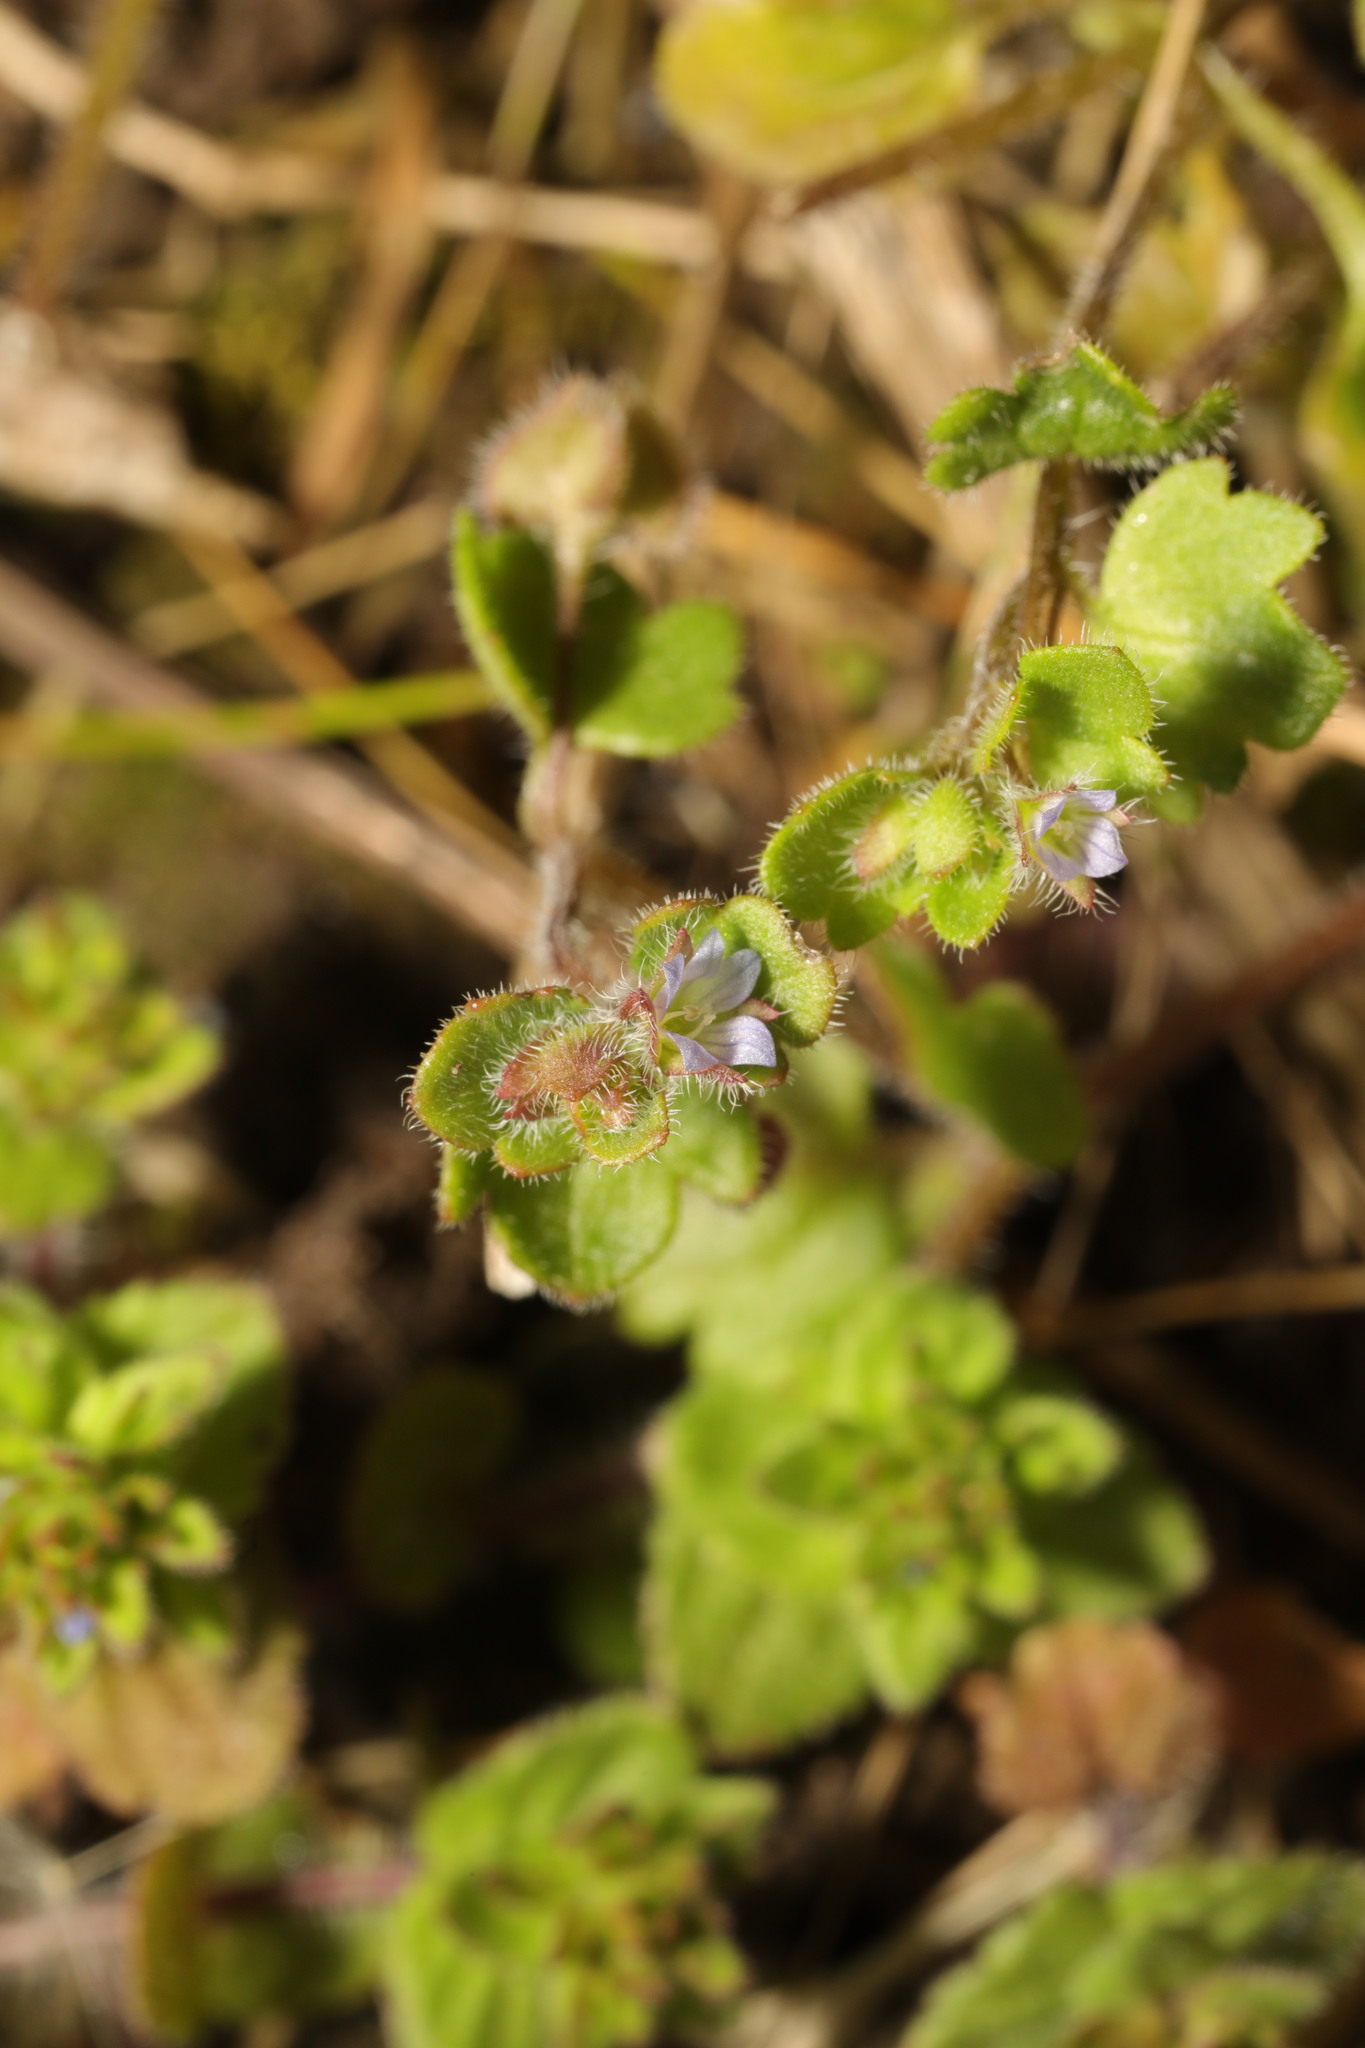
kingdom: Plantae
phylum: Tracheophyta
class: Magnoliopsida
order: Lamiales
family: Plantaginaceae
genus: Veronica
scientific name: Veronica sublobata
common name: False ivy-leaved speedwell
